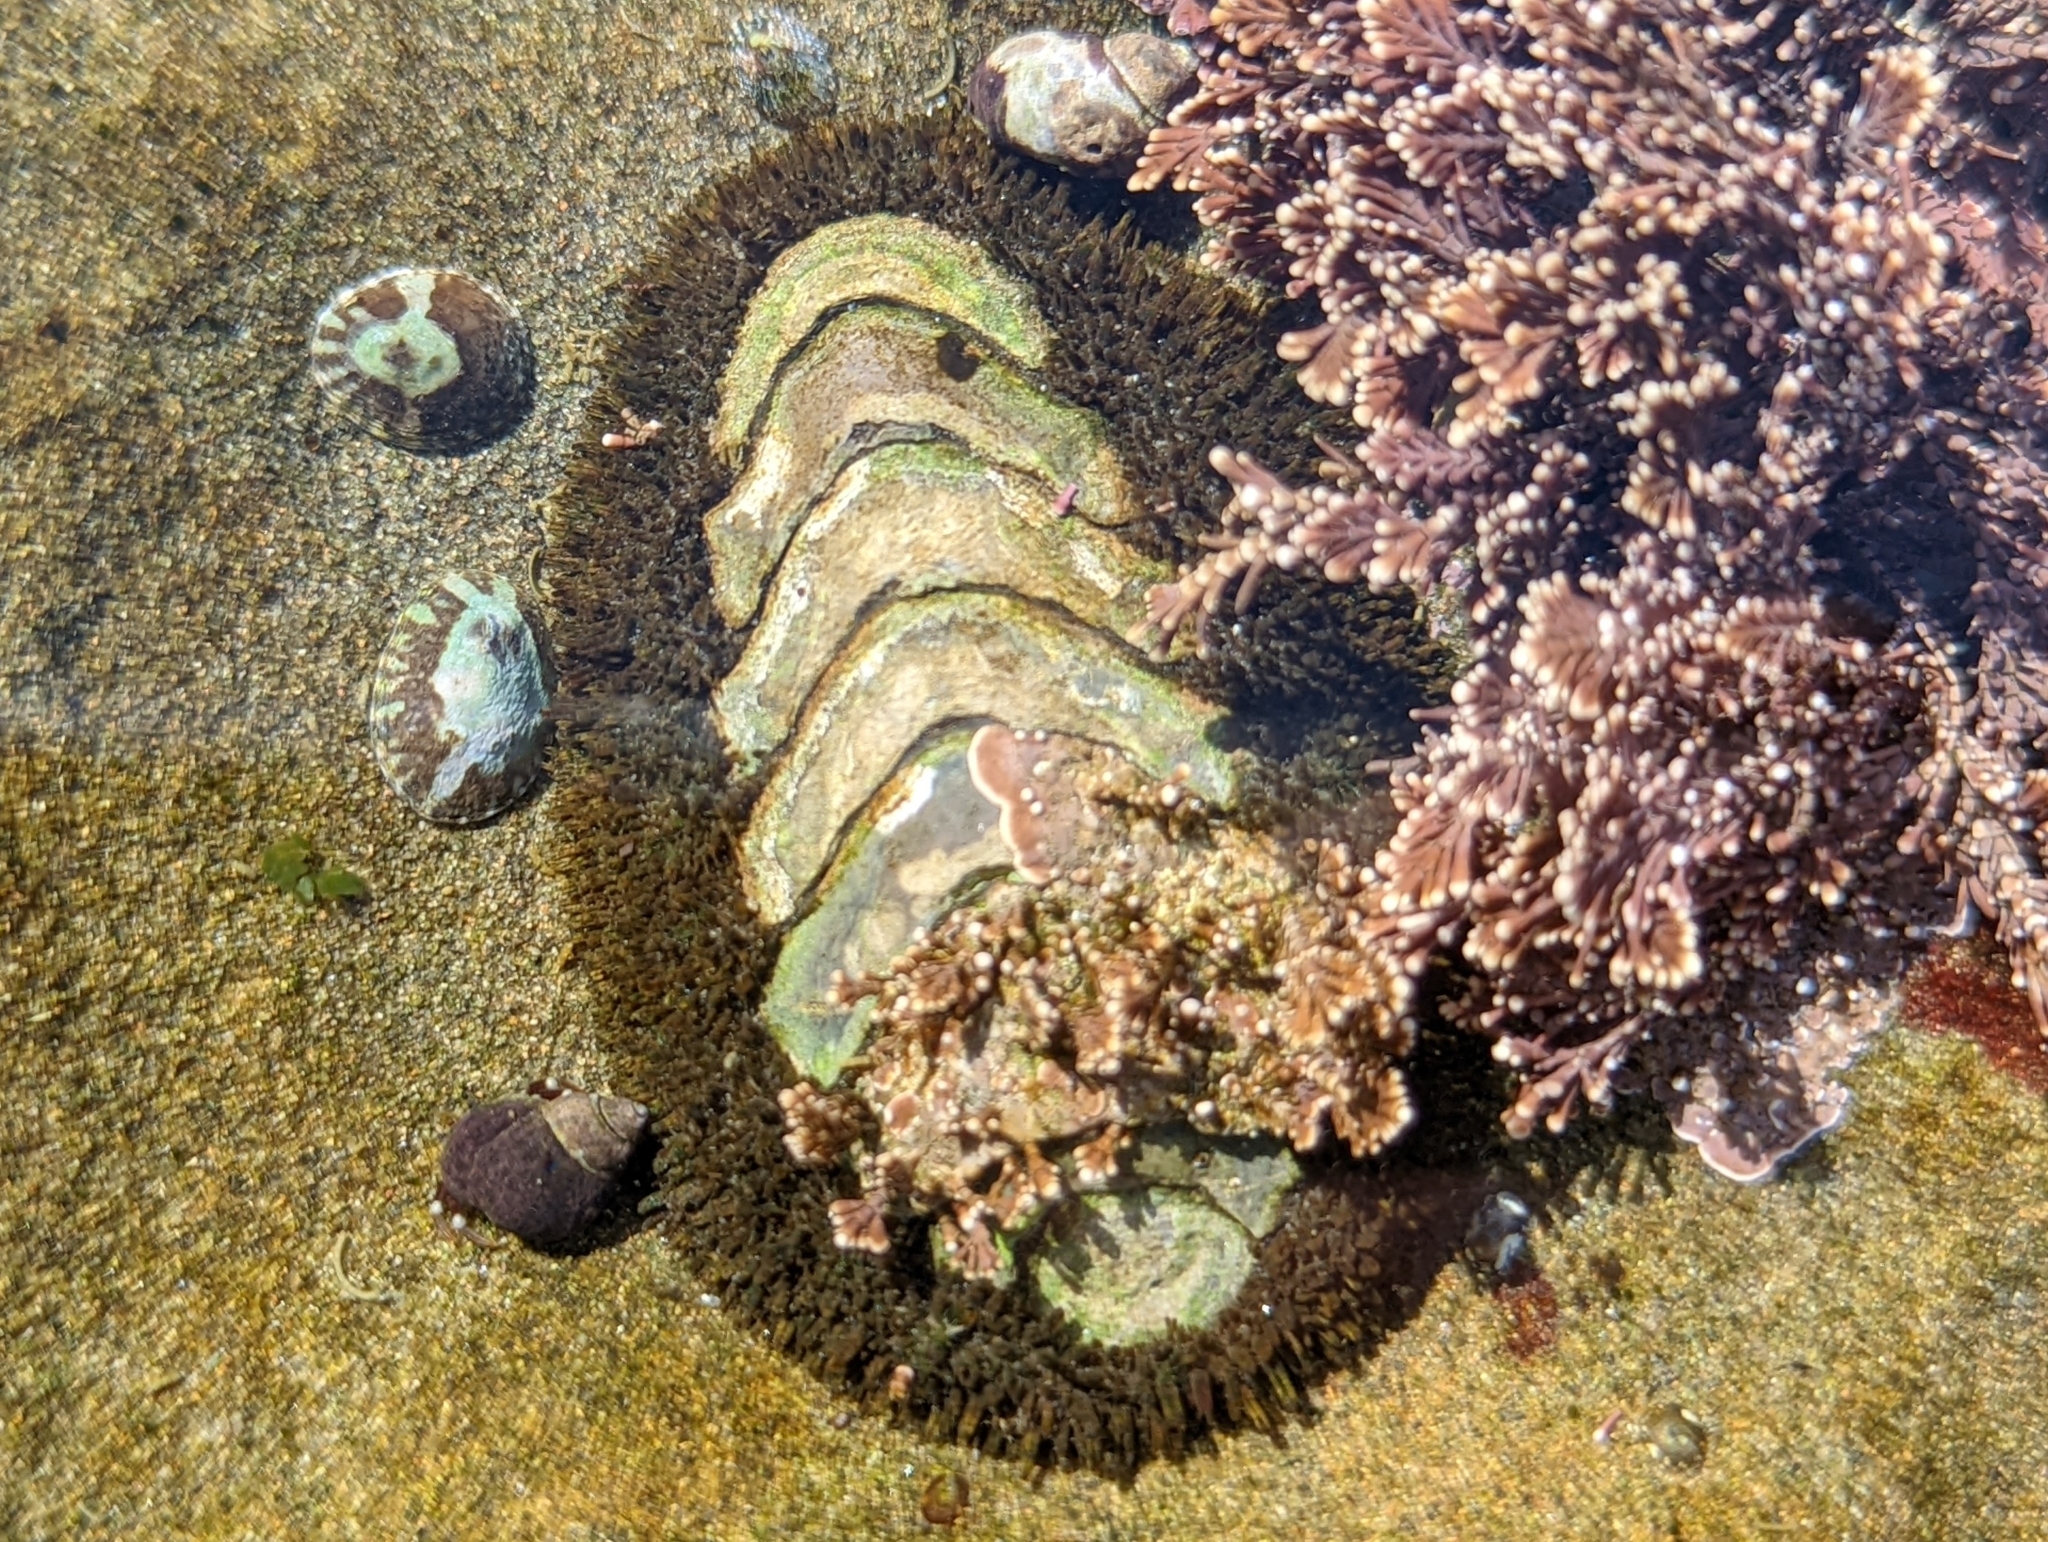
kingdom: Animalia
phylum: Mollusca
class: Polyplacophora
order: Chitonida
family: Mopaliidae
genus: Mopalia
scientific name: Mopalia muscosa
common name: Mossy chiton
